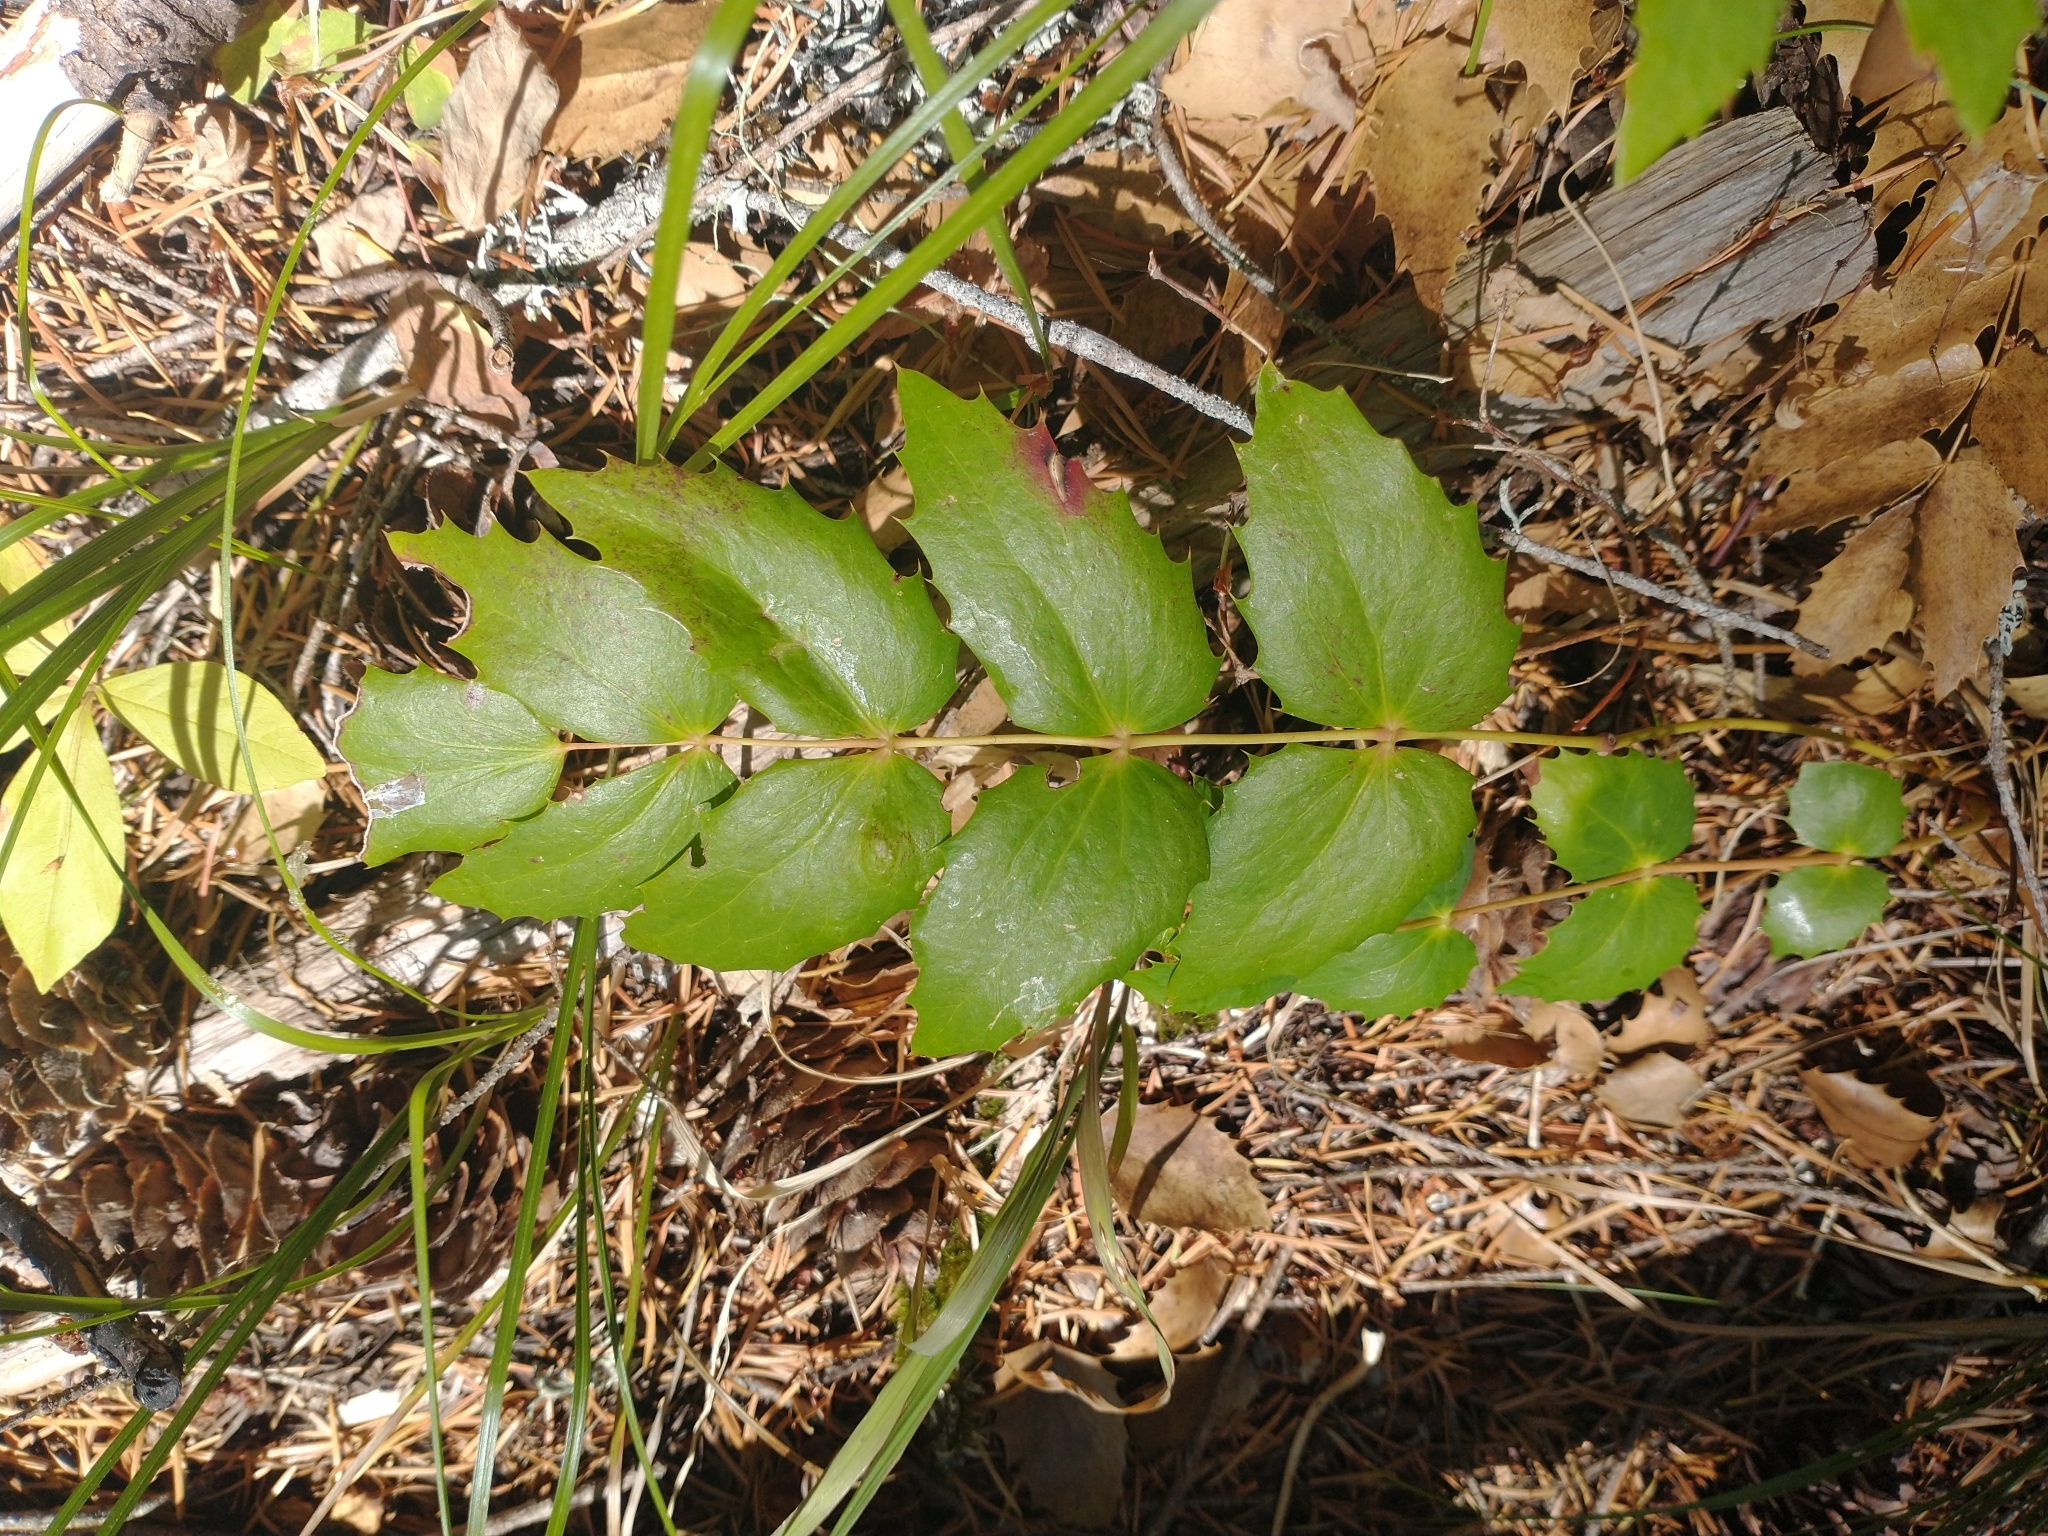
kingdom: Plantae
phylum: Tracheophyta
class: Magnoliopsida
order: Ranunculales
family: Berberidaceae
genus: Mahonia
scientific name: Mahonia nervosa
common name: Cascade oregon-grape
